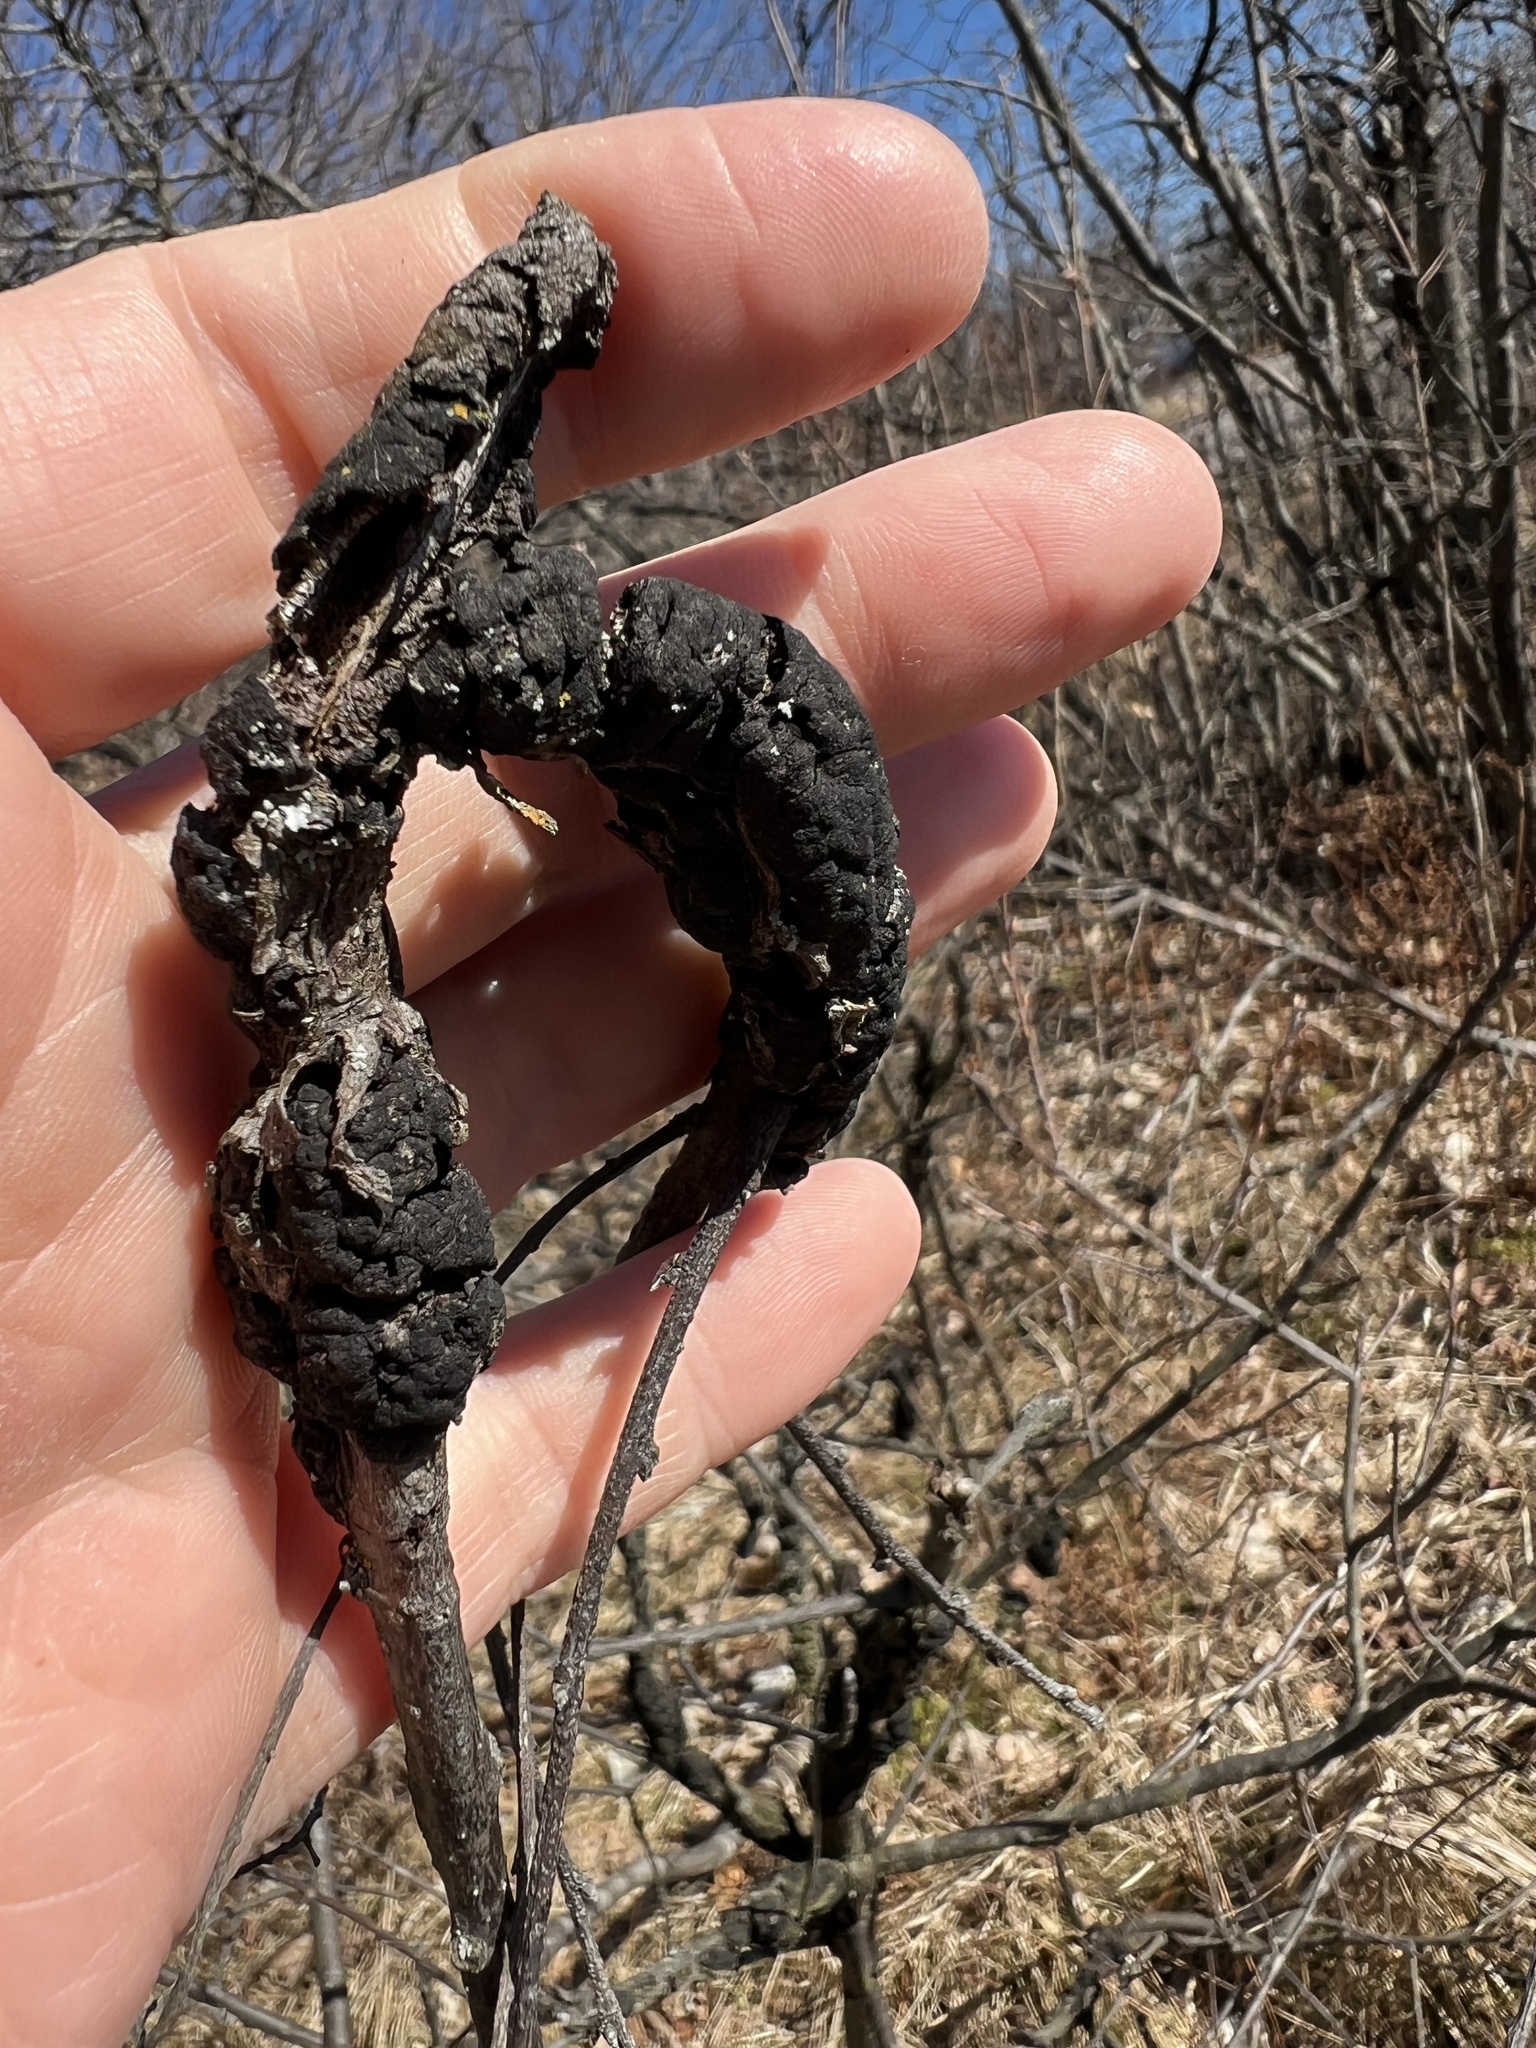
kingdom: Fungi
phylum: Ascomycota
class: Dothideomycetes
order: Venturiales
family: Venturiaceae
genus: Apiosporina
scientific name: Apiosporina morbosa
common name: Black knot
